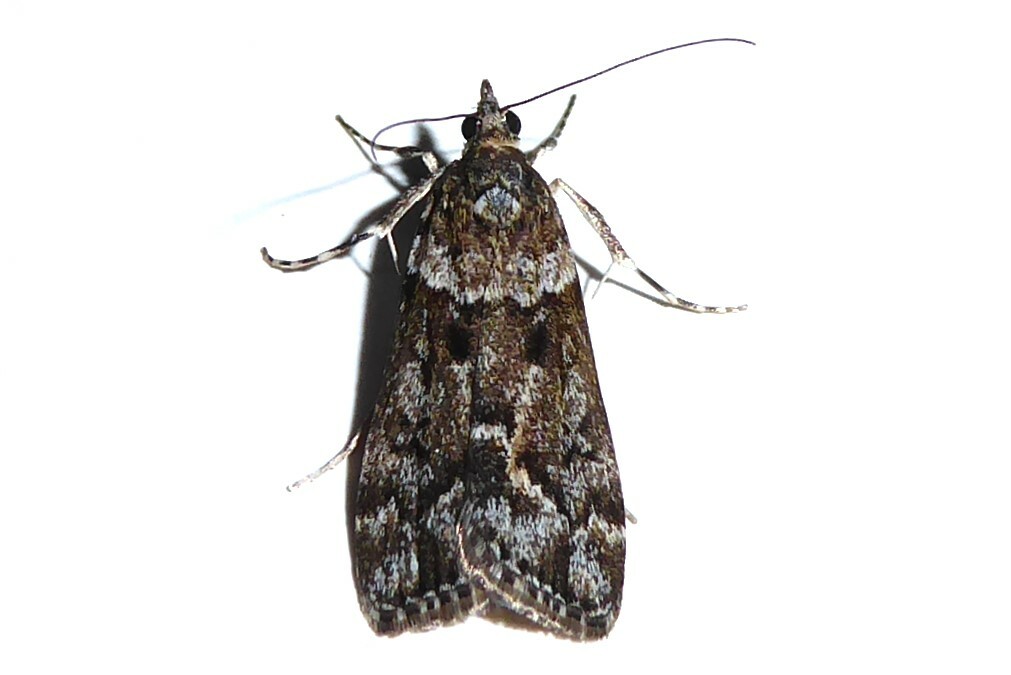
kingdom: Animalia
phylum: Arthropoda
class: Insecta
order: Lepidoptera
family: Crambidae
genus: Eudonia
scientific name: Eudonia submarginalis
